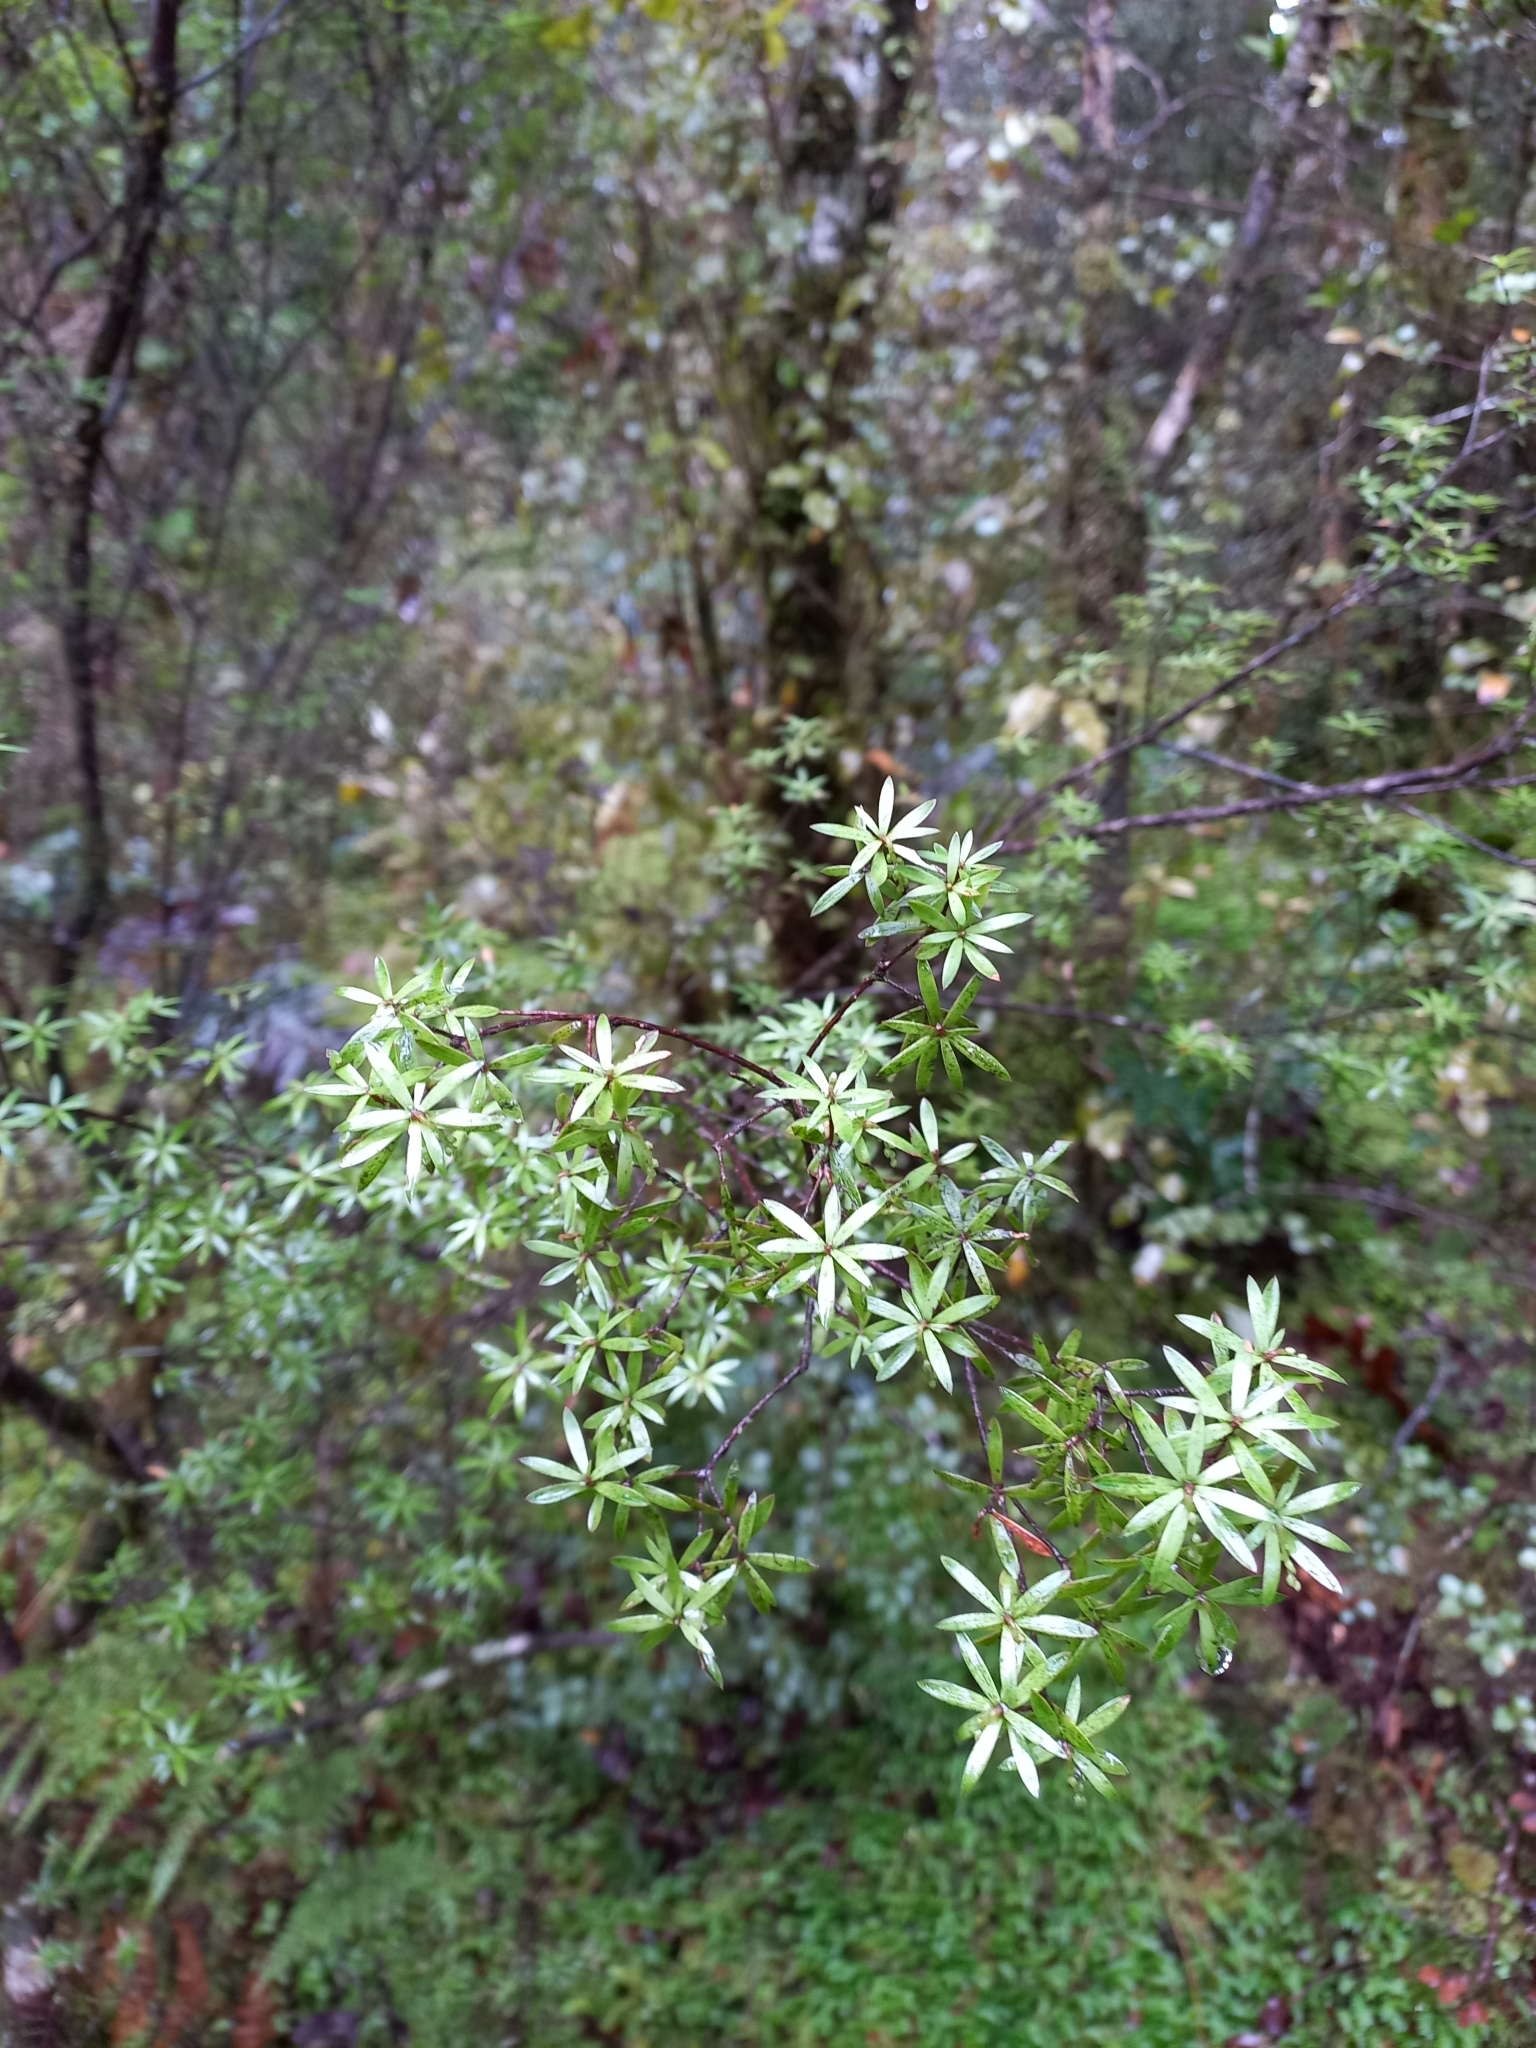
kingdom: Plantae
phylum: Tracheophyta
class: Magnoliopsida
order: Ericales
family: Ericaceae
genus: Leucopogon
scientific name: Leucopogon fasciculatus
